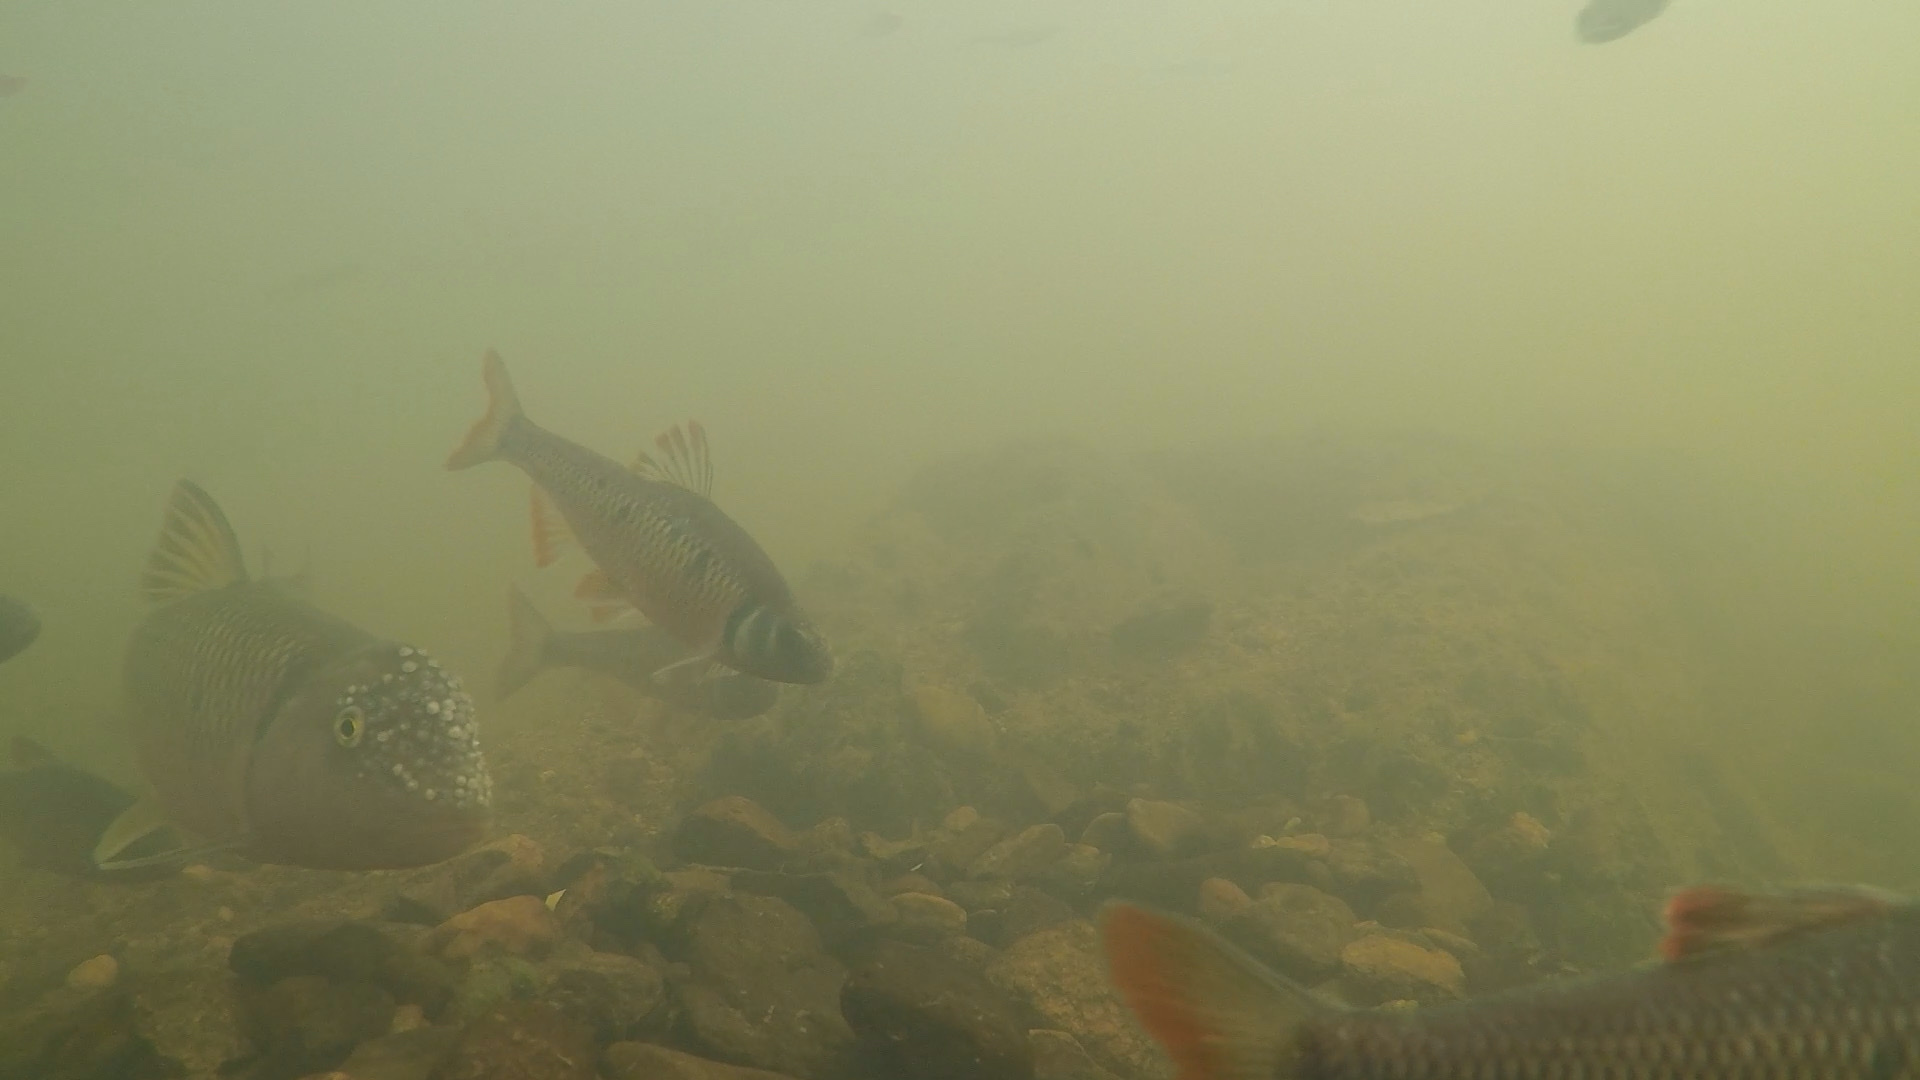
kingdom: Animalia
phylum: Chordata
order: Cypriniformes
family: Cyprinidae
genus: Nocomis
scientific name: Nocomis raneyi
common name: Bull chub
